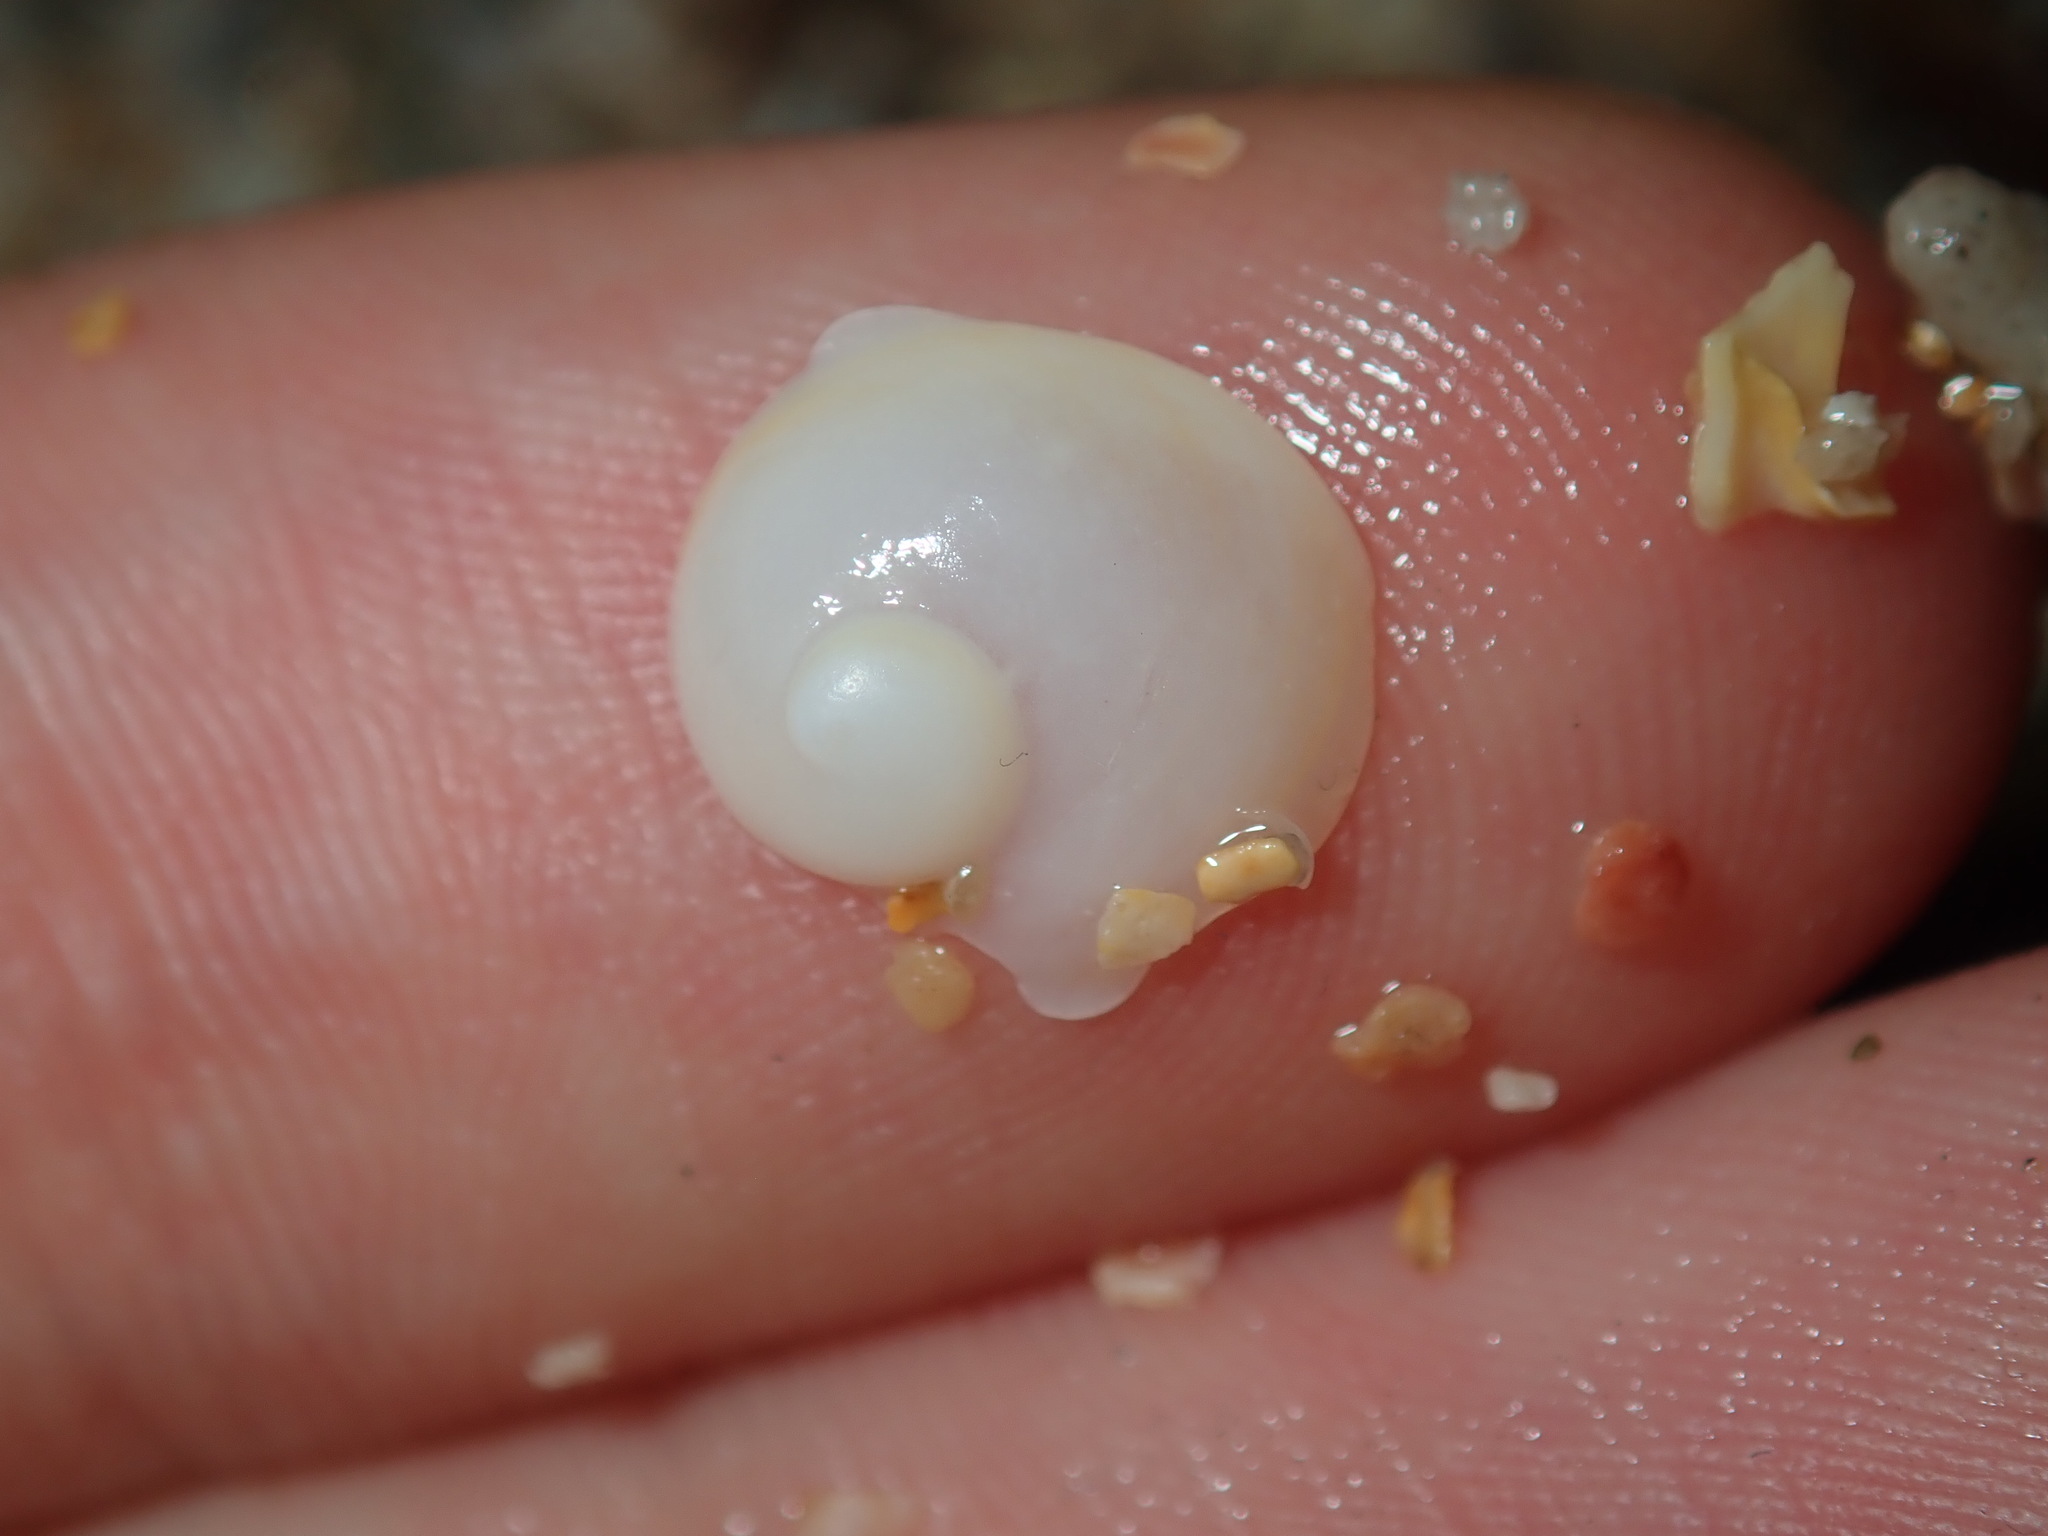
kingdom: Animalia
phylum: Mollusca
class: Gastropoda
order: Littorinimorpha
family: Calyptraeidae
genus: Sigapatella
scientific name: Sigapatella calyptraeformis
